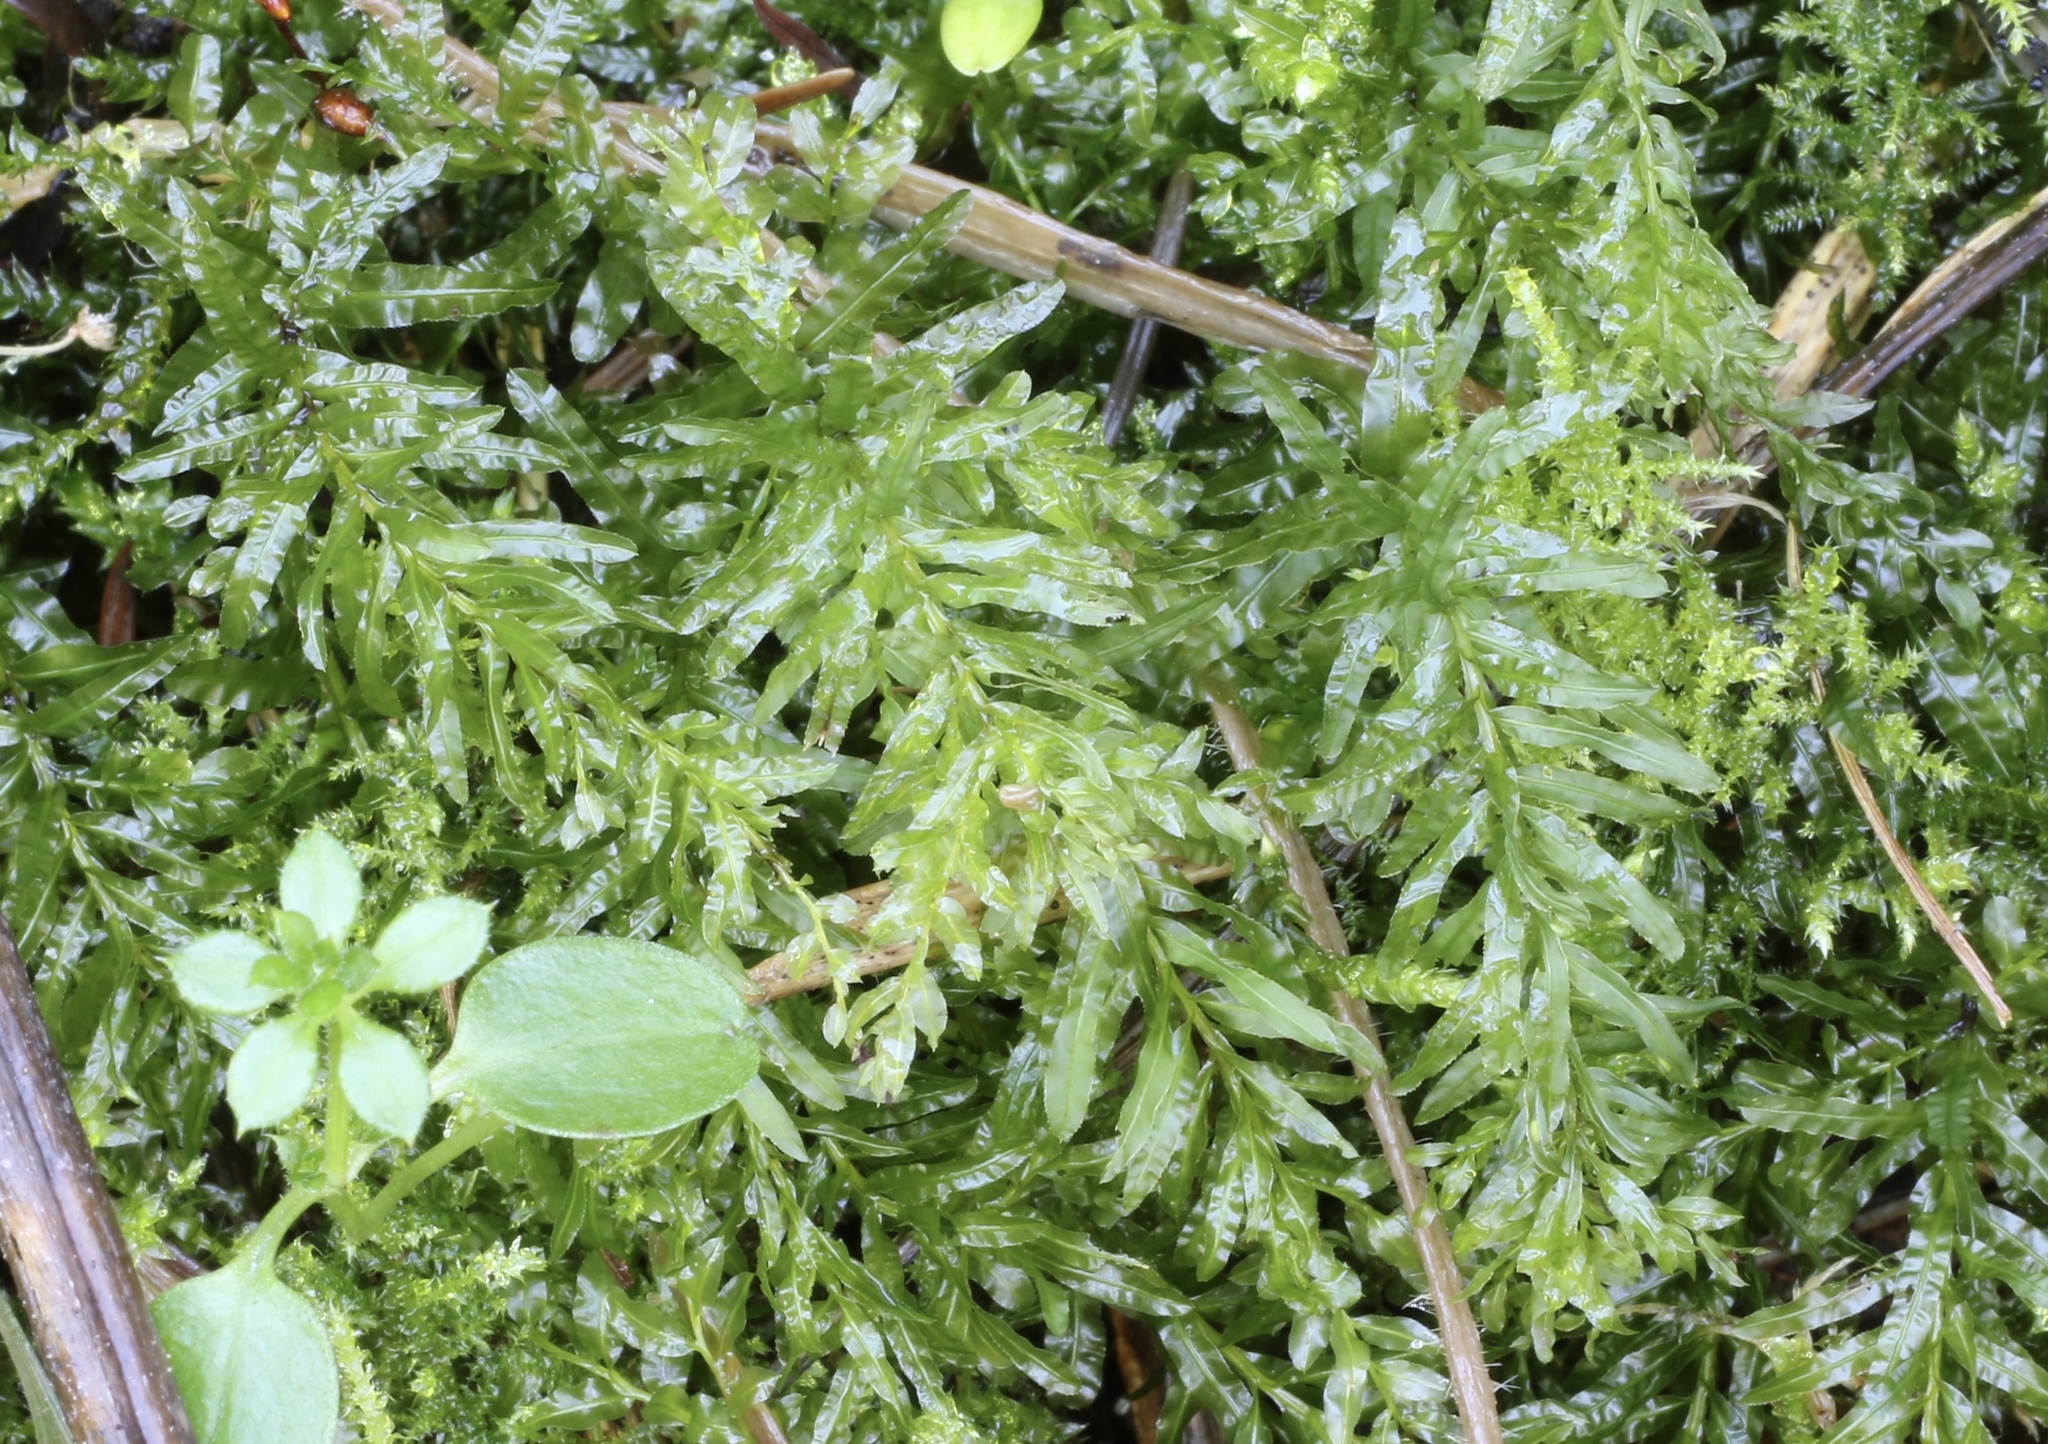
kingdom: Plantae
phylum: Bryophyta
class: Bryopsida
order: Bryales
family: Mniaceae
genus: Plagiomnium
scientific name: Plagiomnium undulatum
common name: Hart's-tongue thyme-moss
